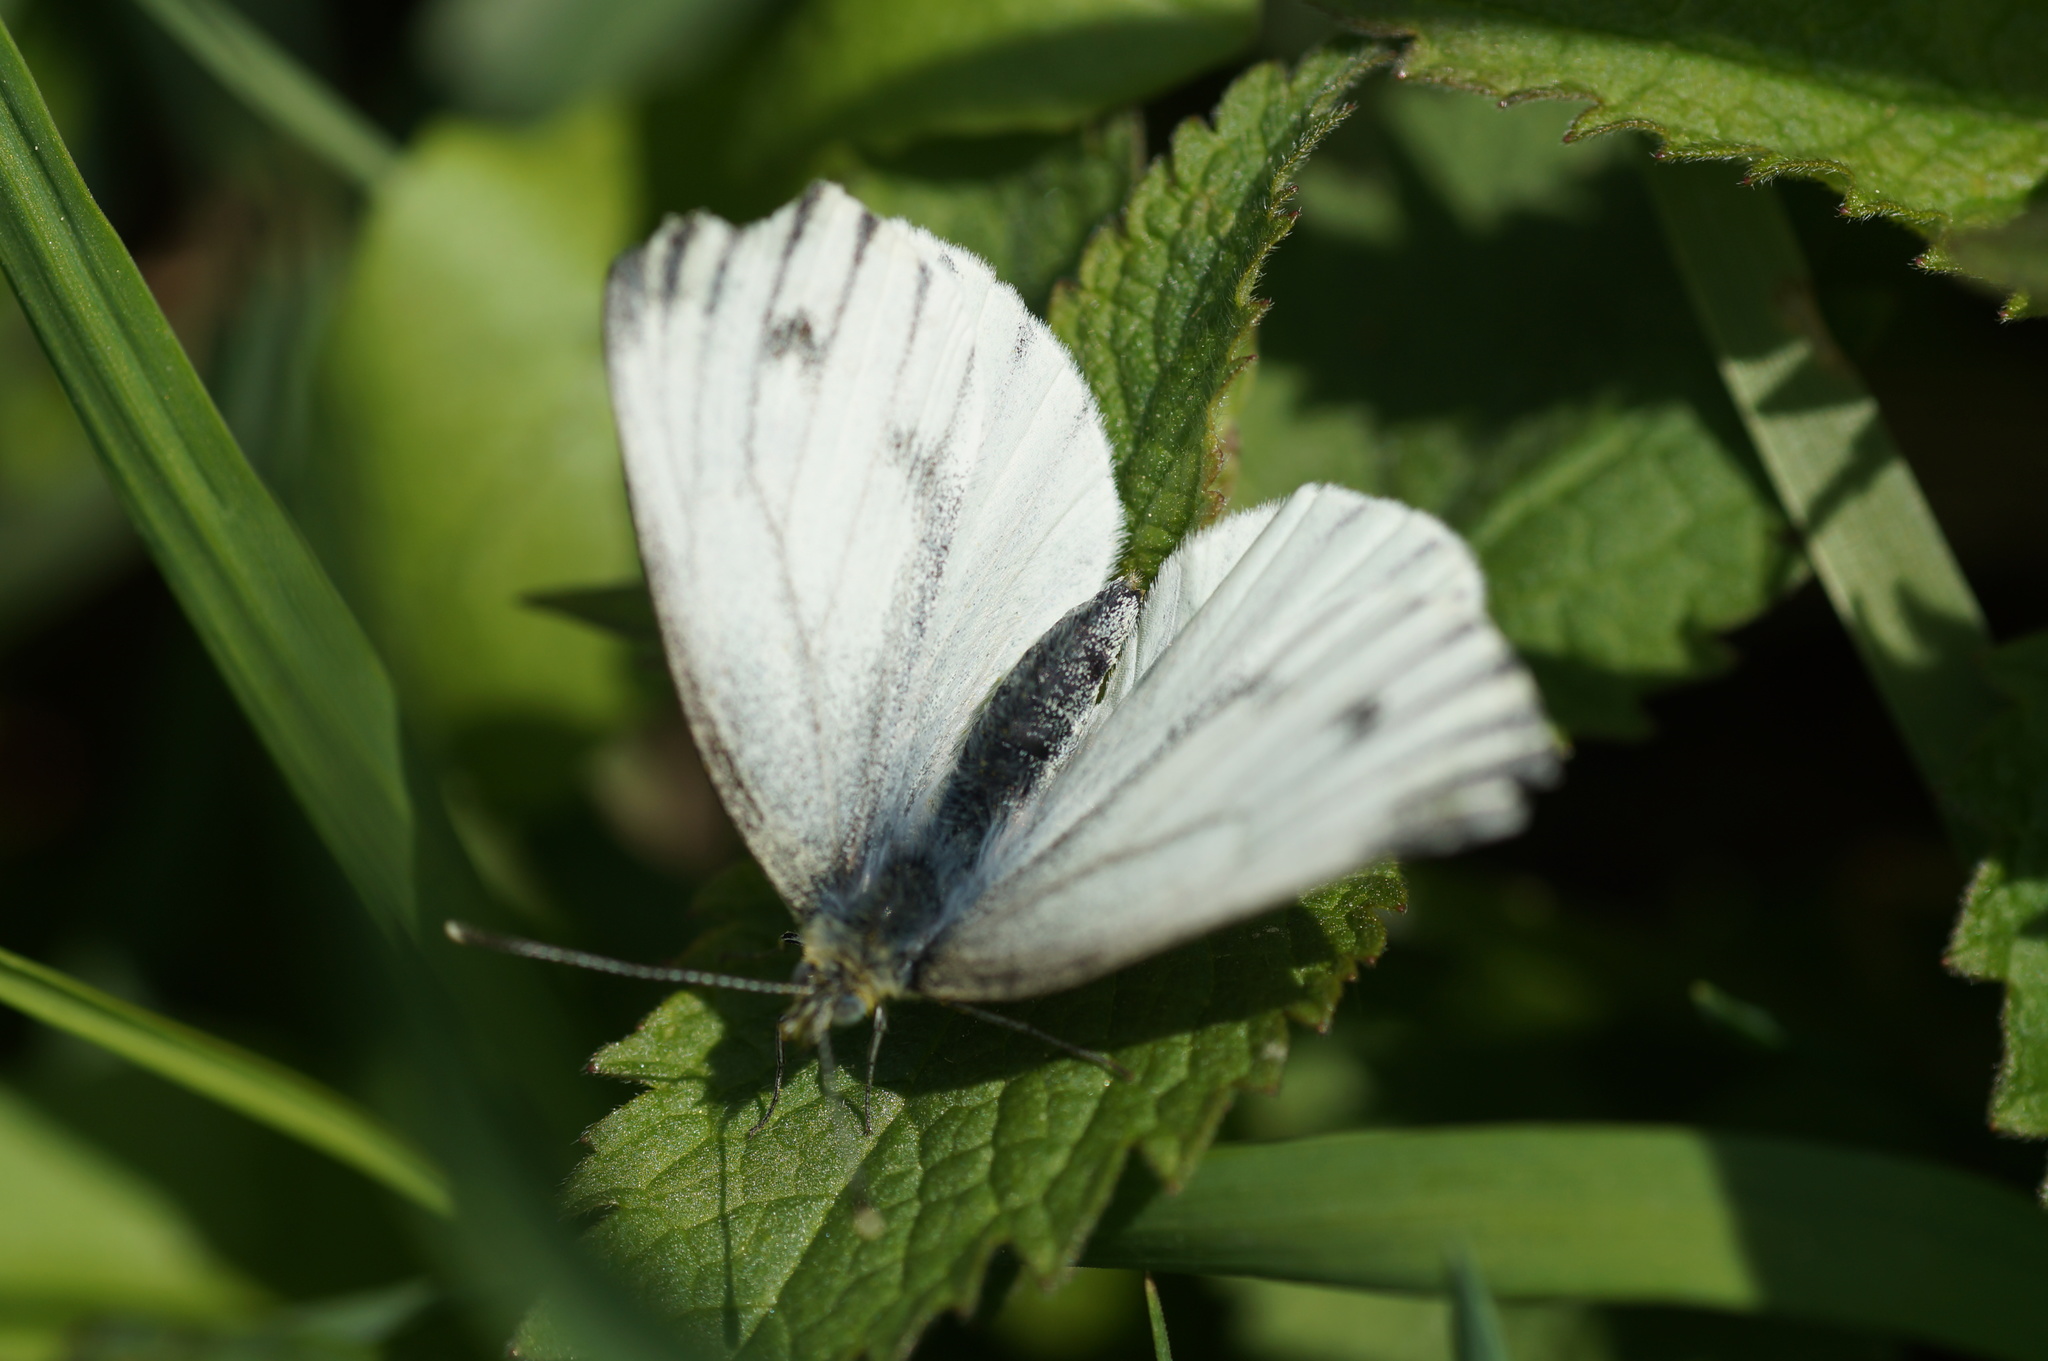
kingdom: Animalia
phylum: Arthropoda
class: Insecta
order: Lepidoptera
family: Pieridae
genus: Pieris
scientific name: Pieris napi
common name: Green-veined white
